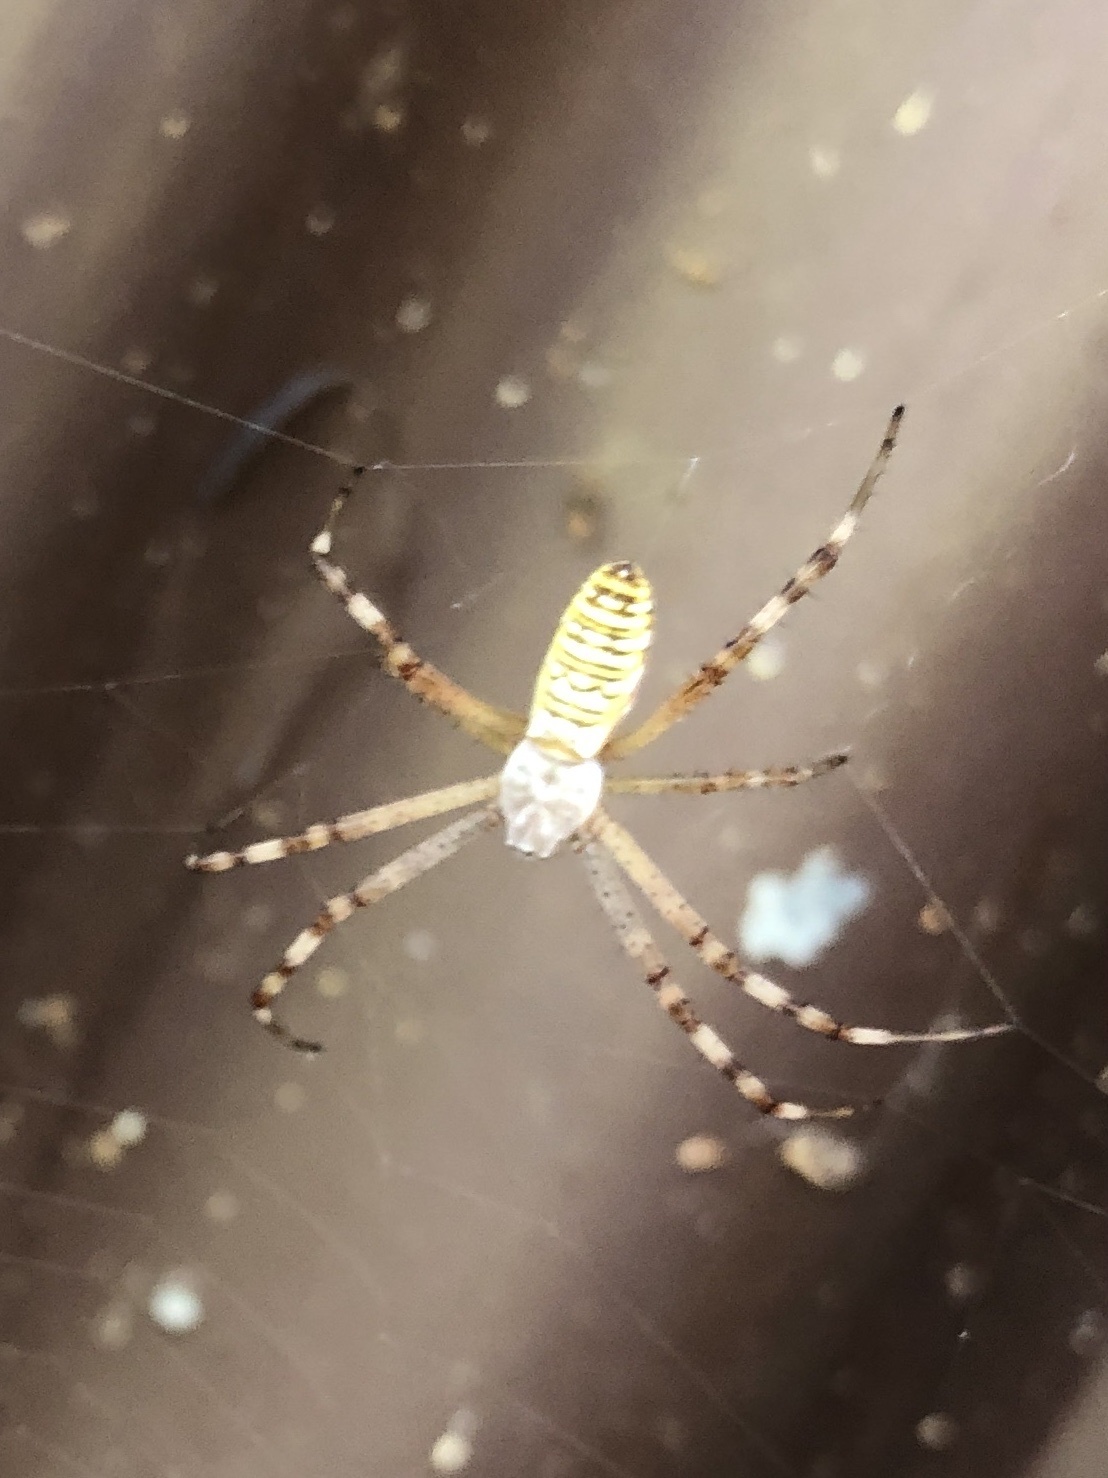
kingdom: Animalia
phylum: Arthropoda
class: Arachnida
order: Araneae
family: Araneidae
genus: Argiope
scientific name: Argiope bruennichi
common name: Wasp spider
